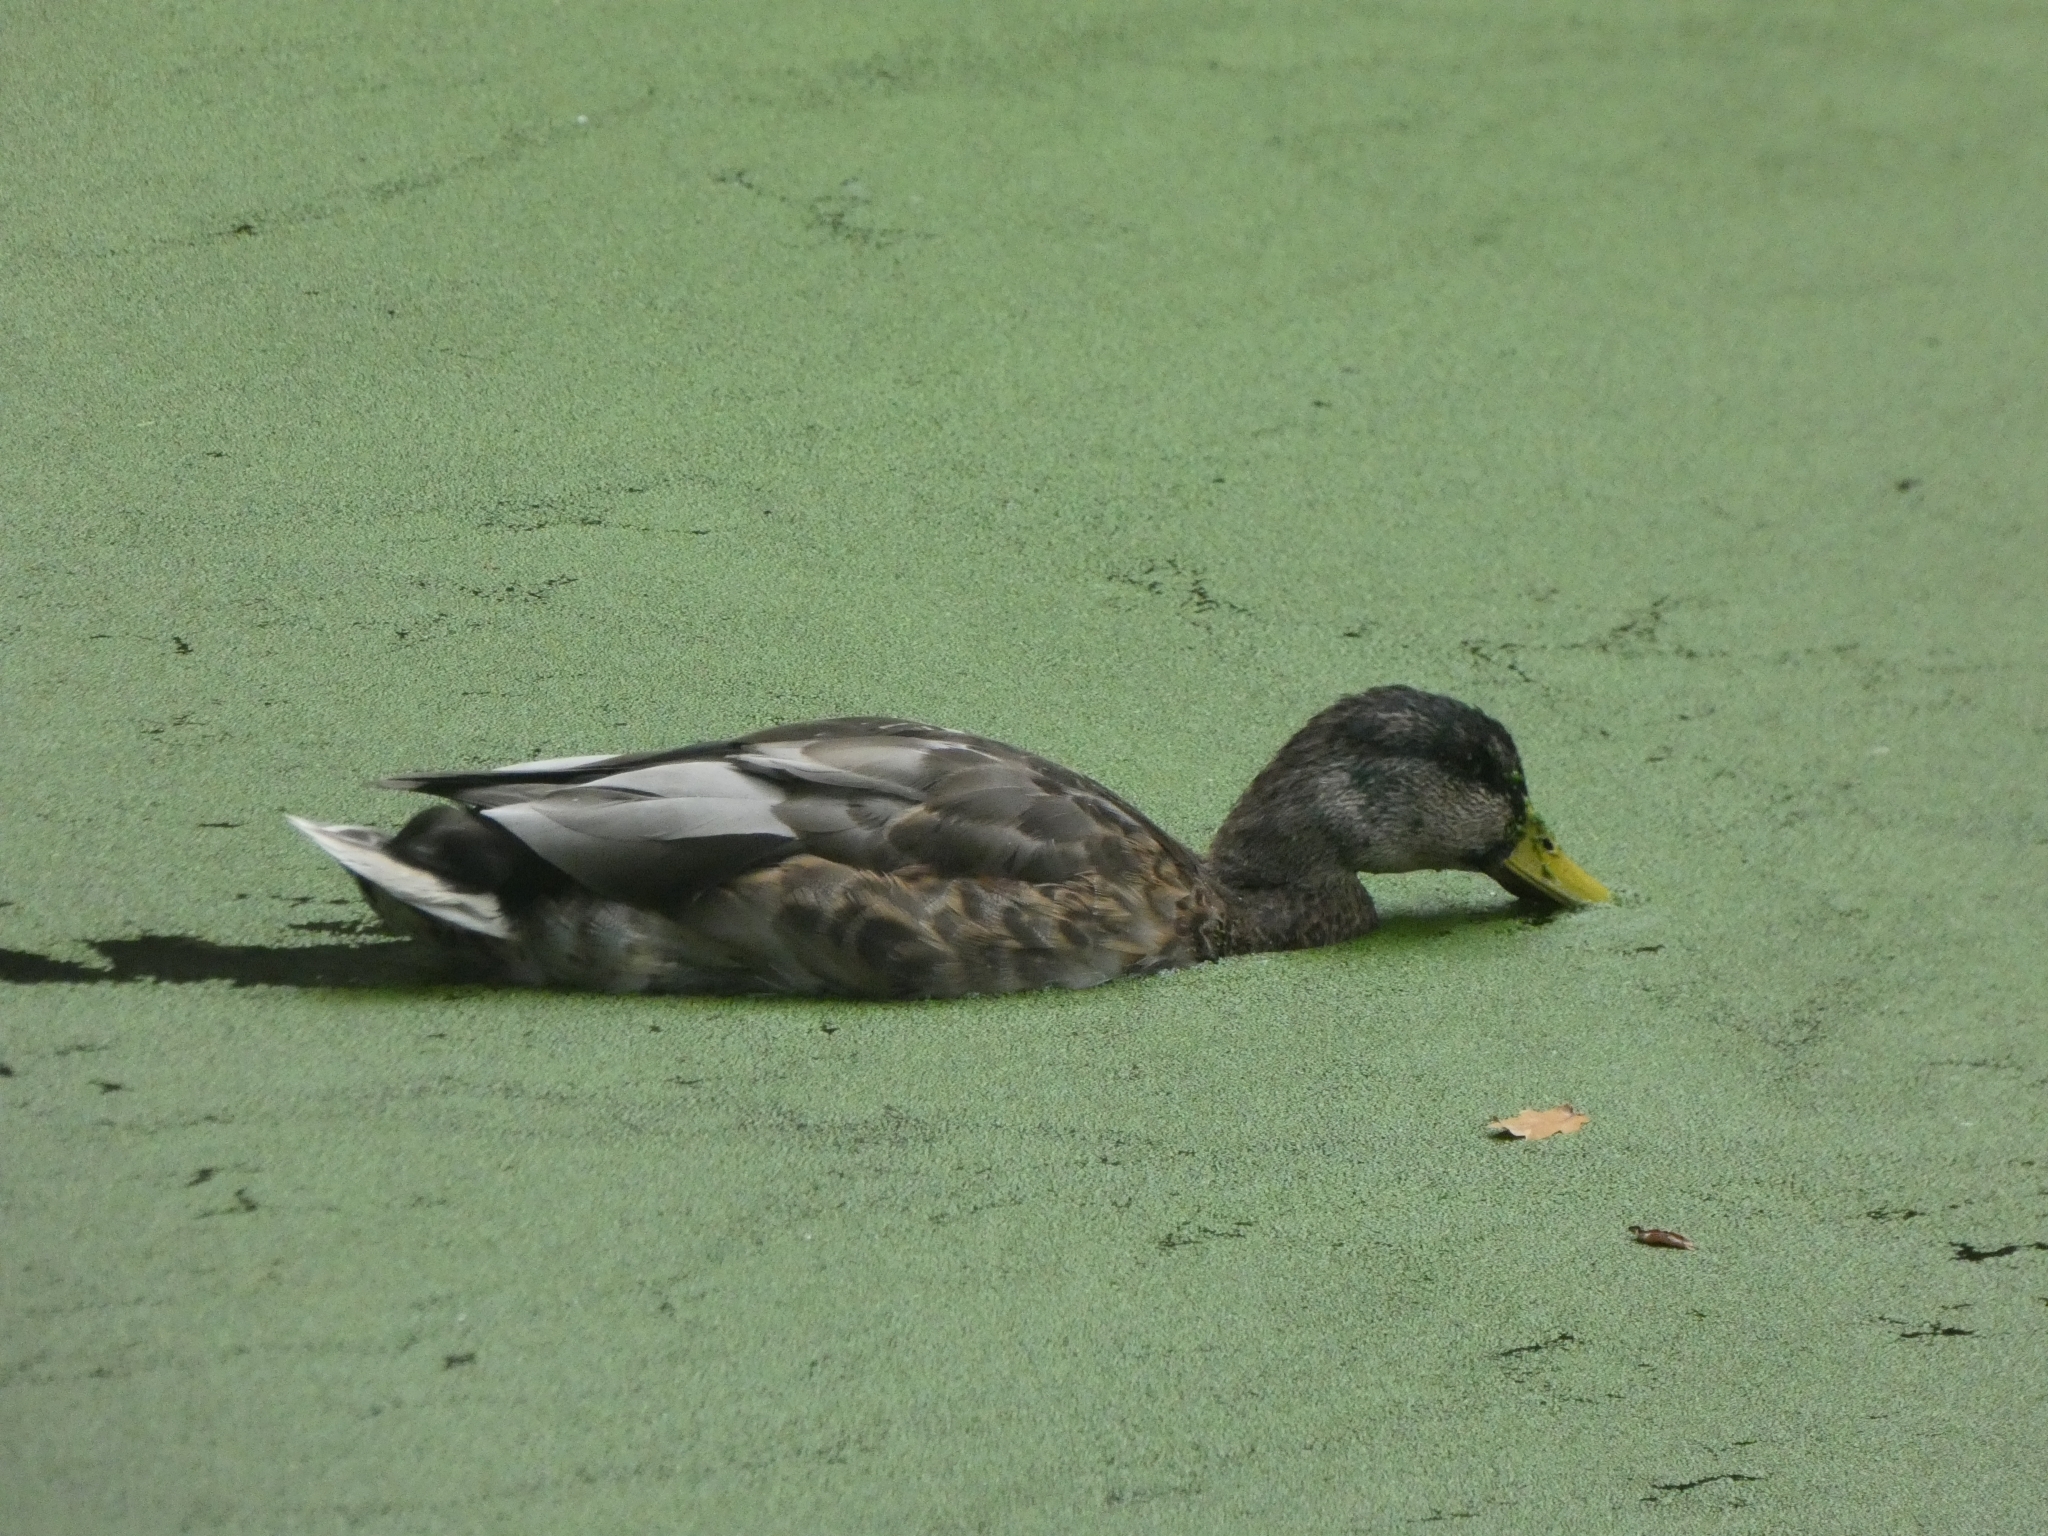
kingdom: Animalia
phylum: Chordata
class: Aves
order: Anseriformes
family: Anatidae
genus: Anas
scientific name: Anas platyrhynchos
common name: Mallard
